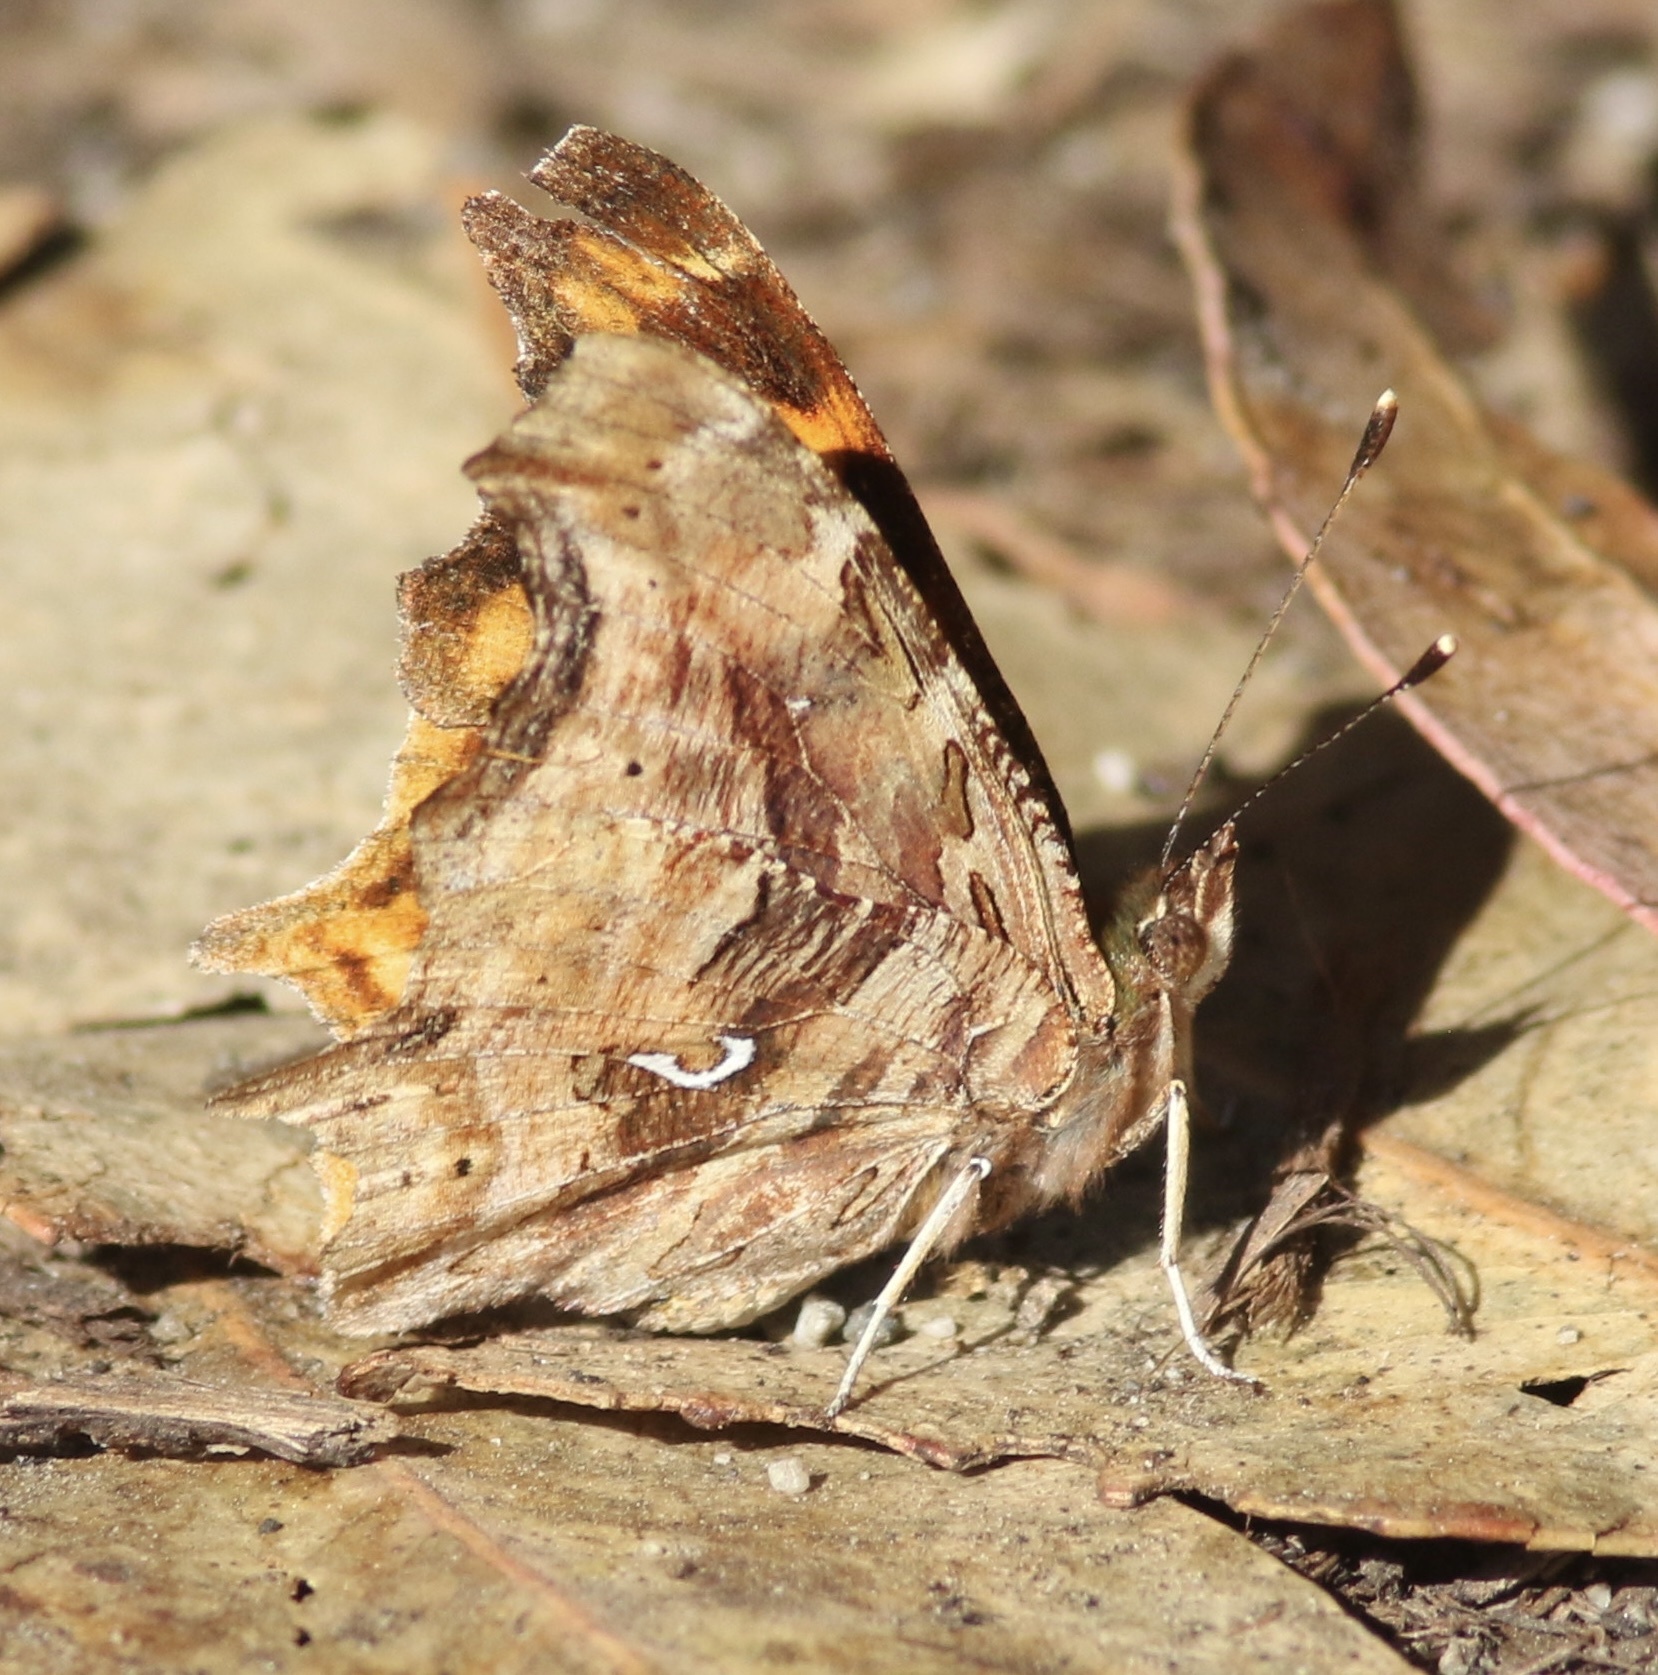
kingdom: Animalia
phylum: Arthropoda
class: Insecta
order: Lepidoptera
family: Nymphalidae
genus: Polygonia
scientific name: Polygonia satyrus
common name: Satyr angle wing
